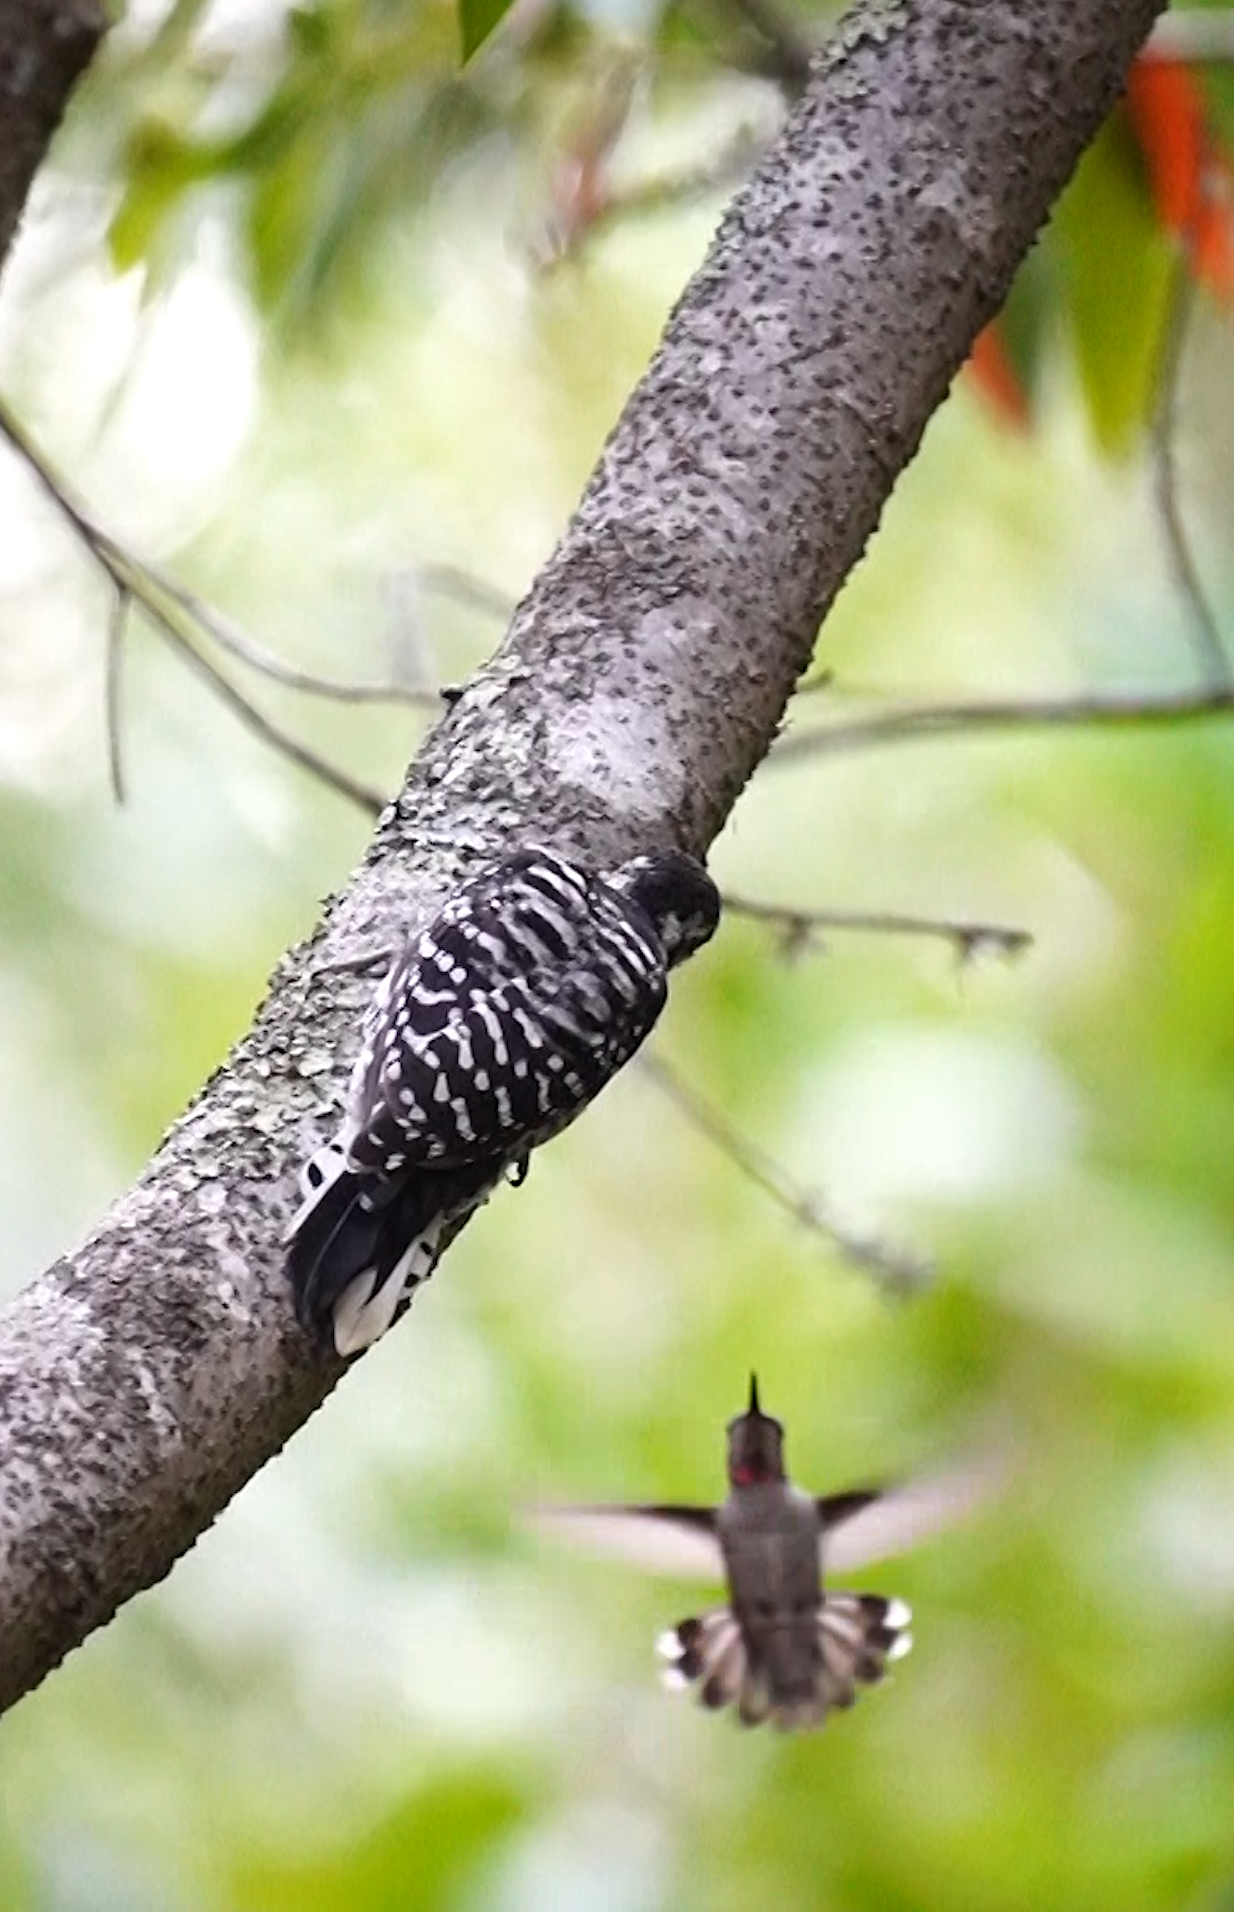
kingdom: Animalia
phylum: Chordata
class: Aves
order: Piciformes
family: Picidae
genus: Dryobates
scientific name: Dryobates nuttallii
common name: Nuttall's woodpecker
